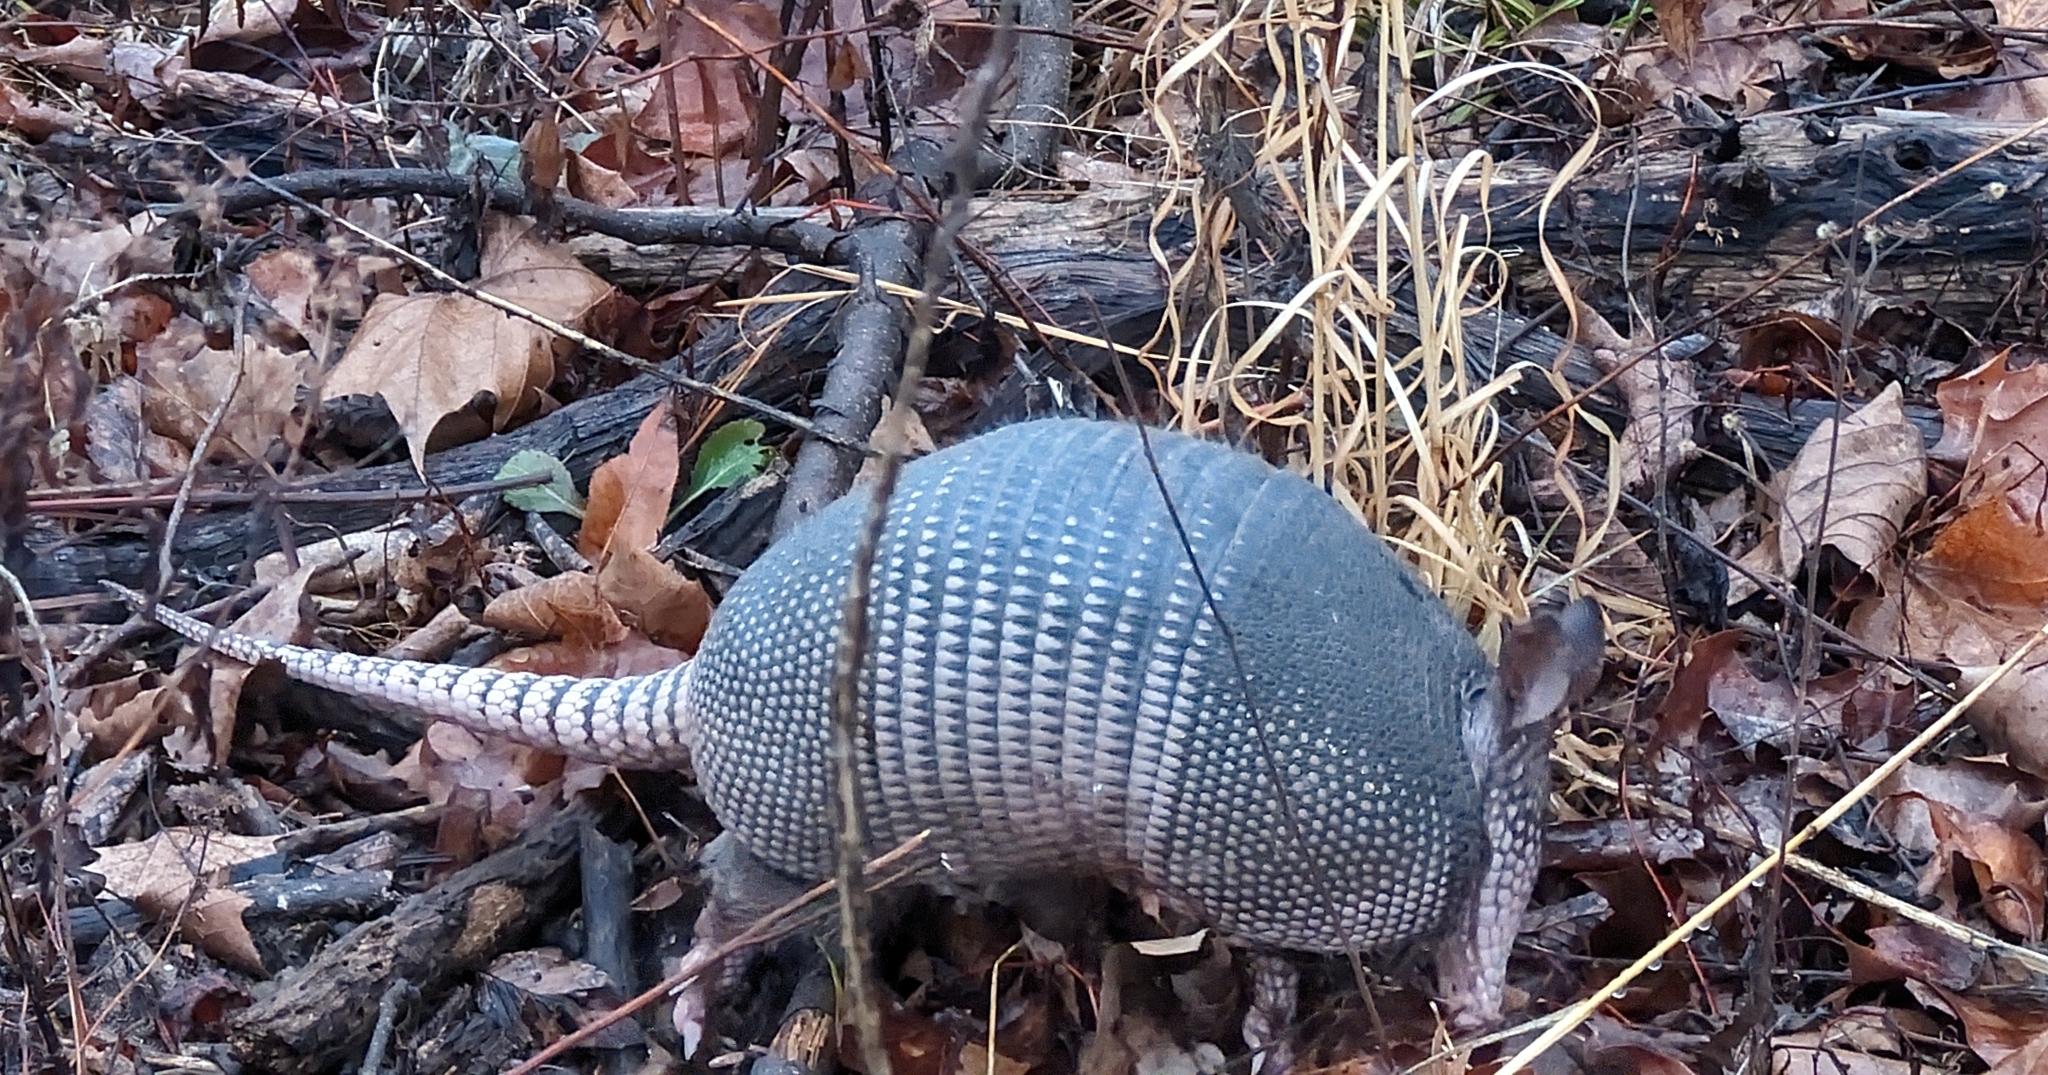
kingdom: Animalia
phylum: Chordata
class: Mammalia
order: Cingulata
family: Dasypodidae
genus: Dasypus
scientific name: Dasypus novemcinctus
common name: Nine-banded armadillo
